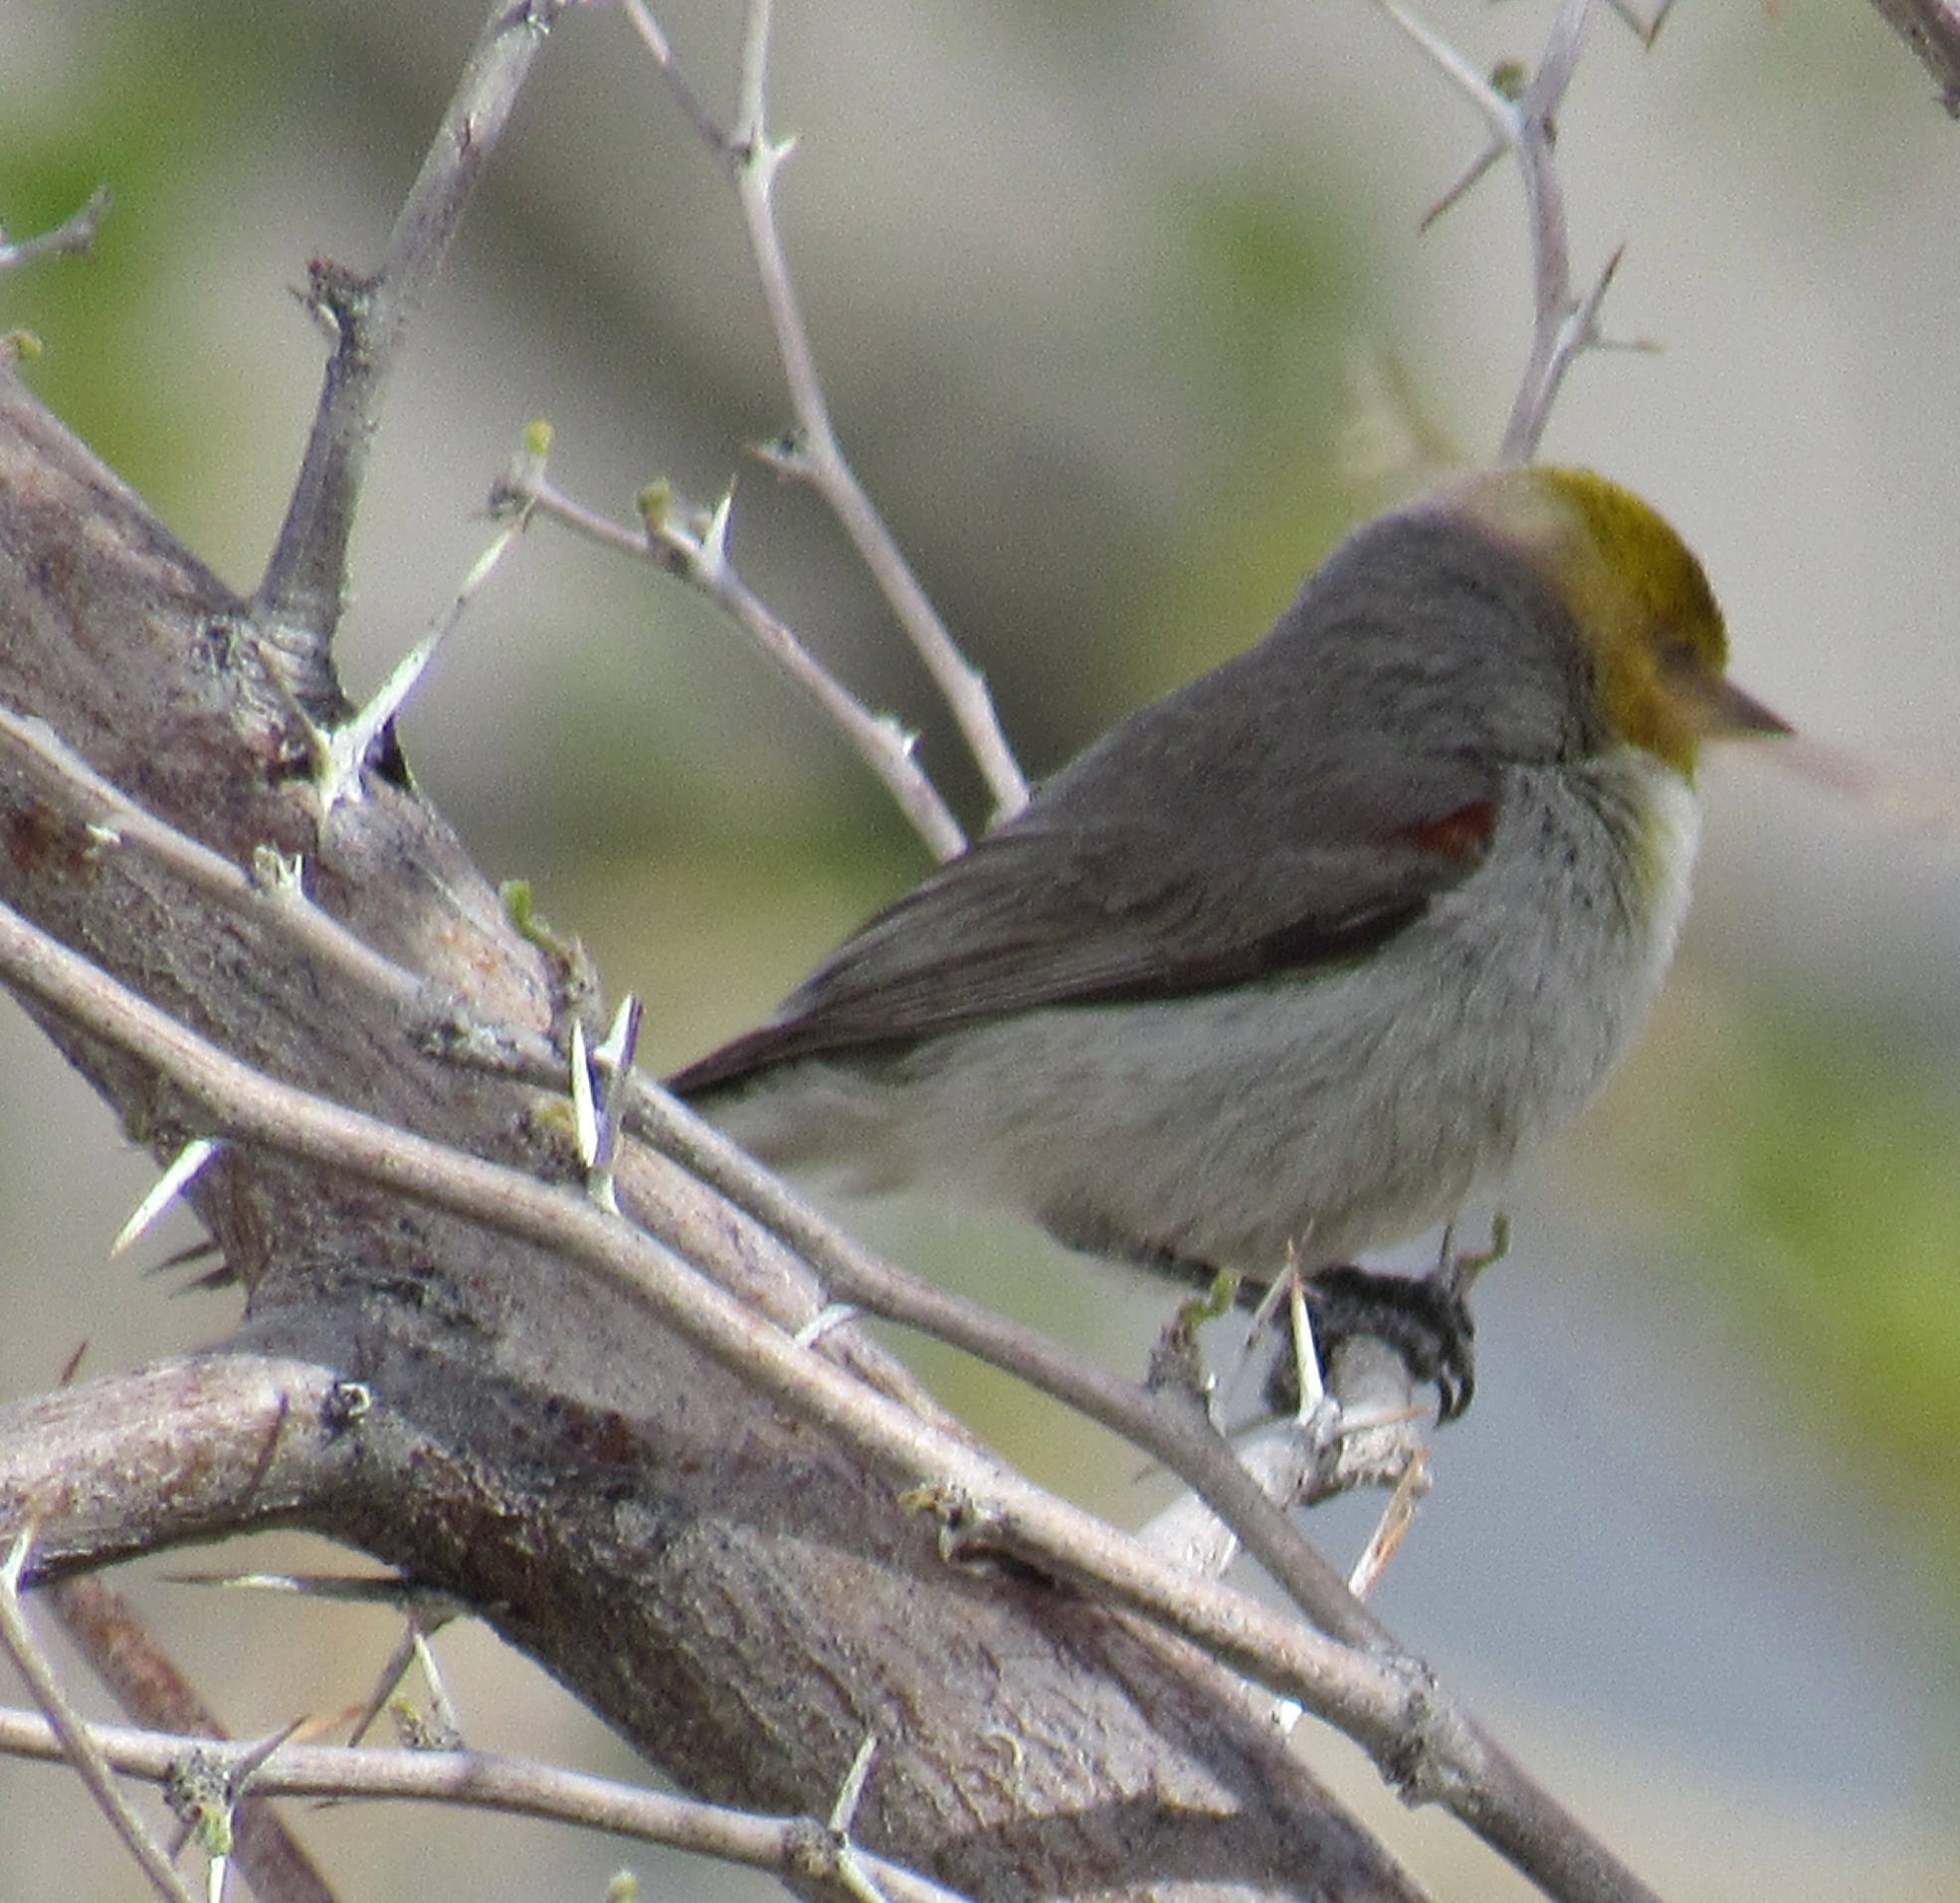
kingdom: Animalia
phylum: Chordata
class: Aves
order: Passeriformes
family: Remizidae
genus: Auriparus
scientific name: Auriparus flaviceps
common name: Verdin
